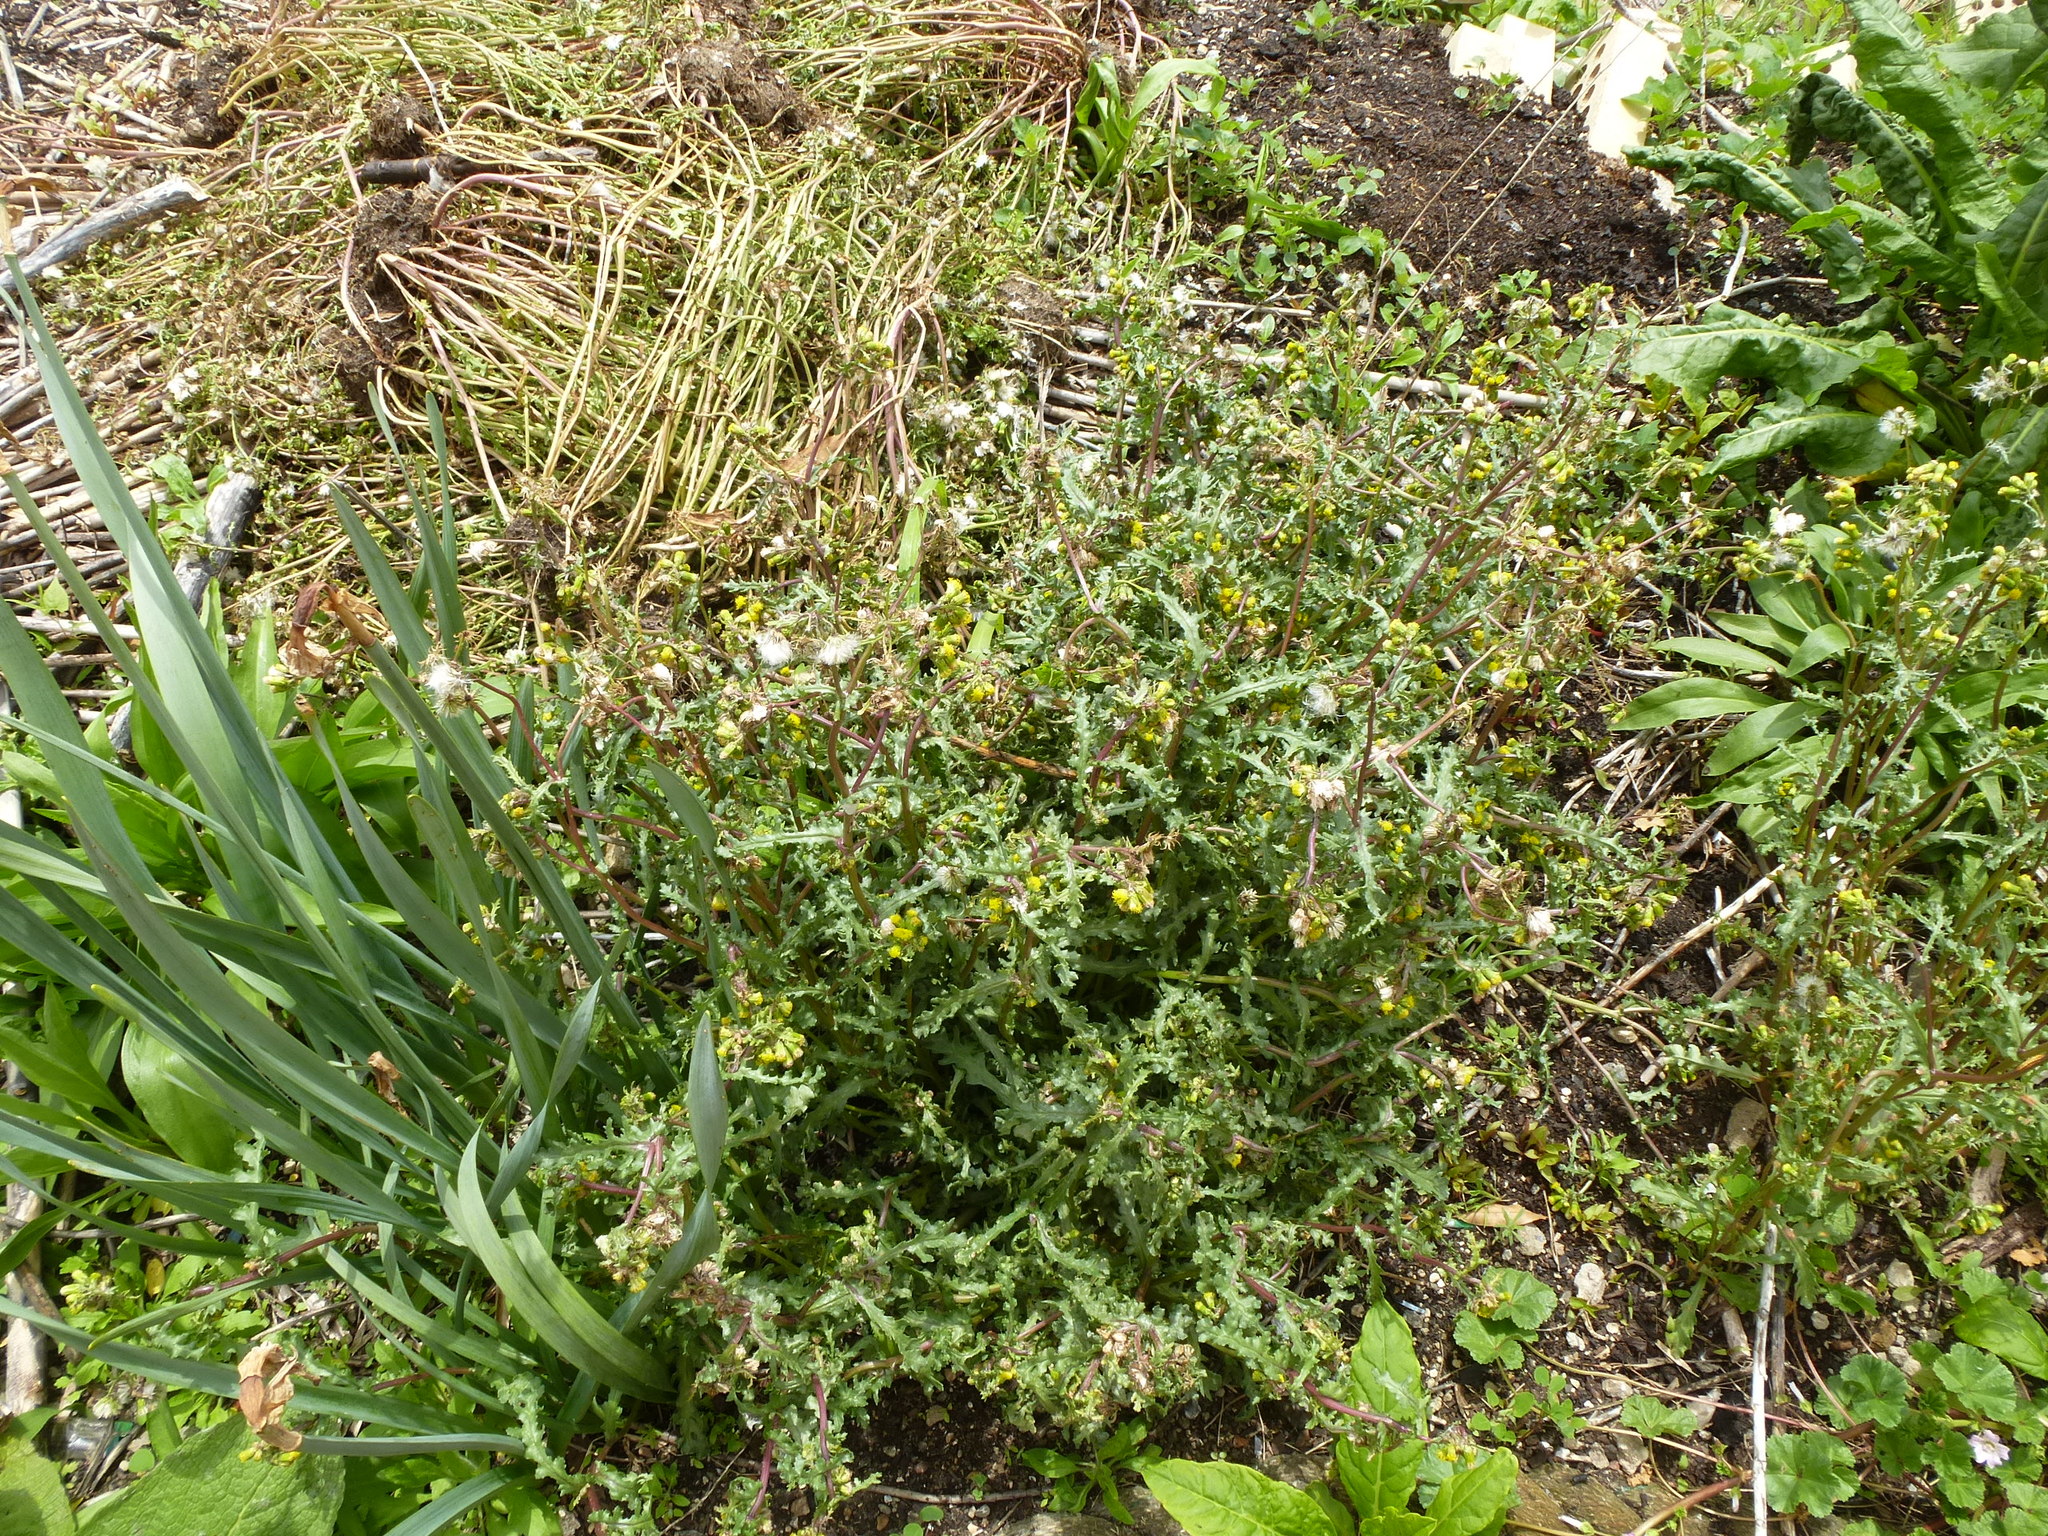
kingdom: Plantae
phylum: Tracheophyta
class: Magnoliopsida
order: Asterales
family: Asteraceae
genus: Senecio
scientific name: Senecio vulgaris
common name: Old-man-in-the-spring
